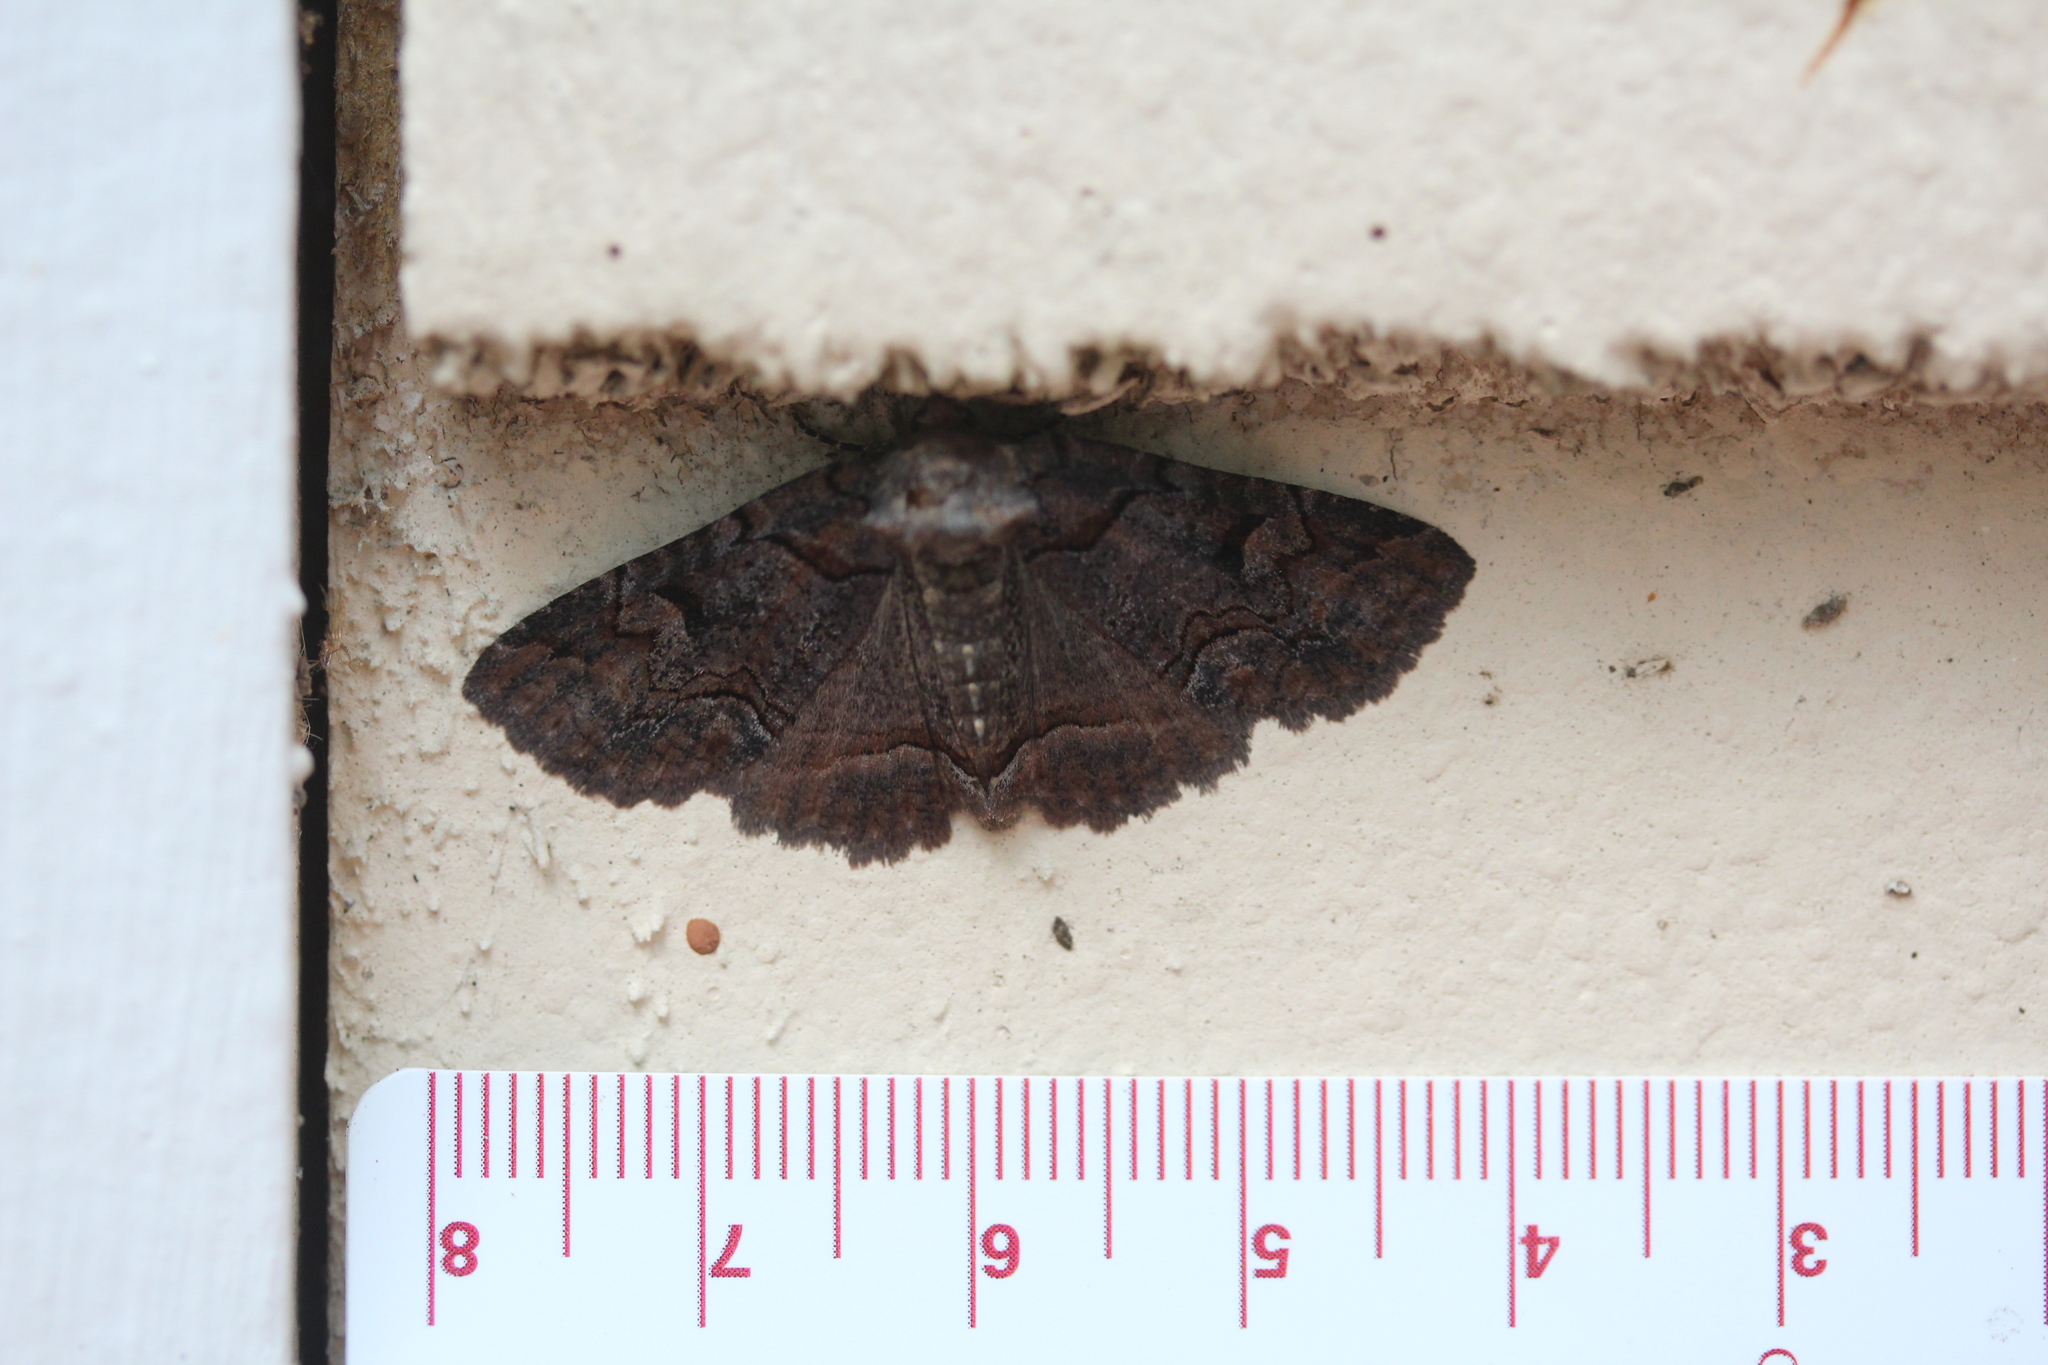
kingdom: Animalia
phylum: Arthropoda
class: Insecta
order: Lepidoptera
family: Erebidae
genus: Zale
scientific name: Zale helata
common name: Brown-spotted zale moth
